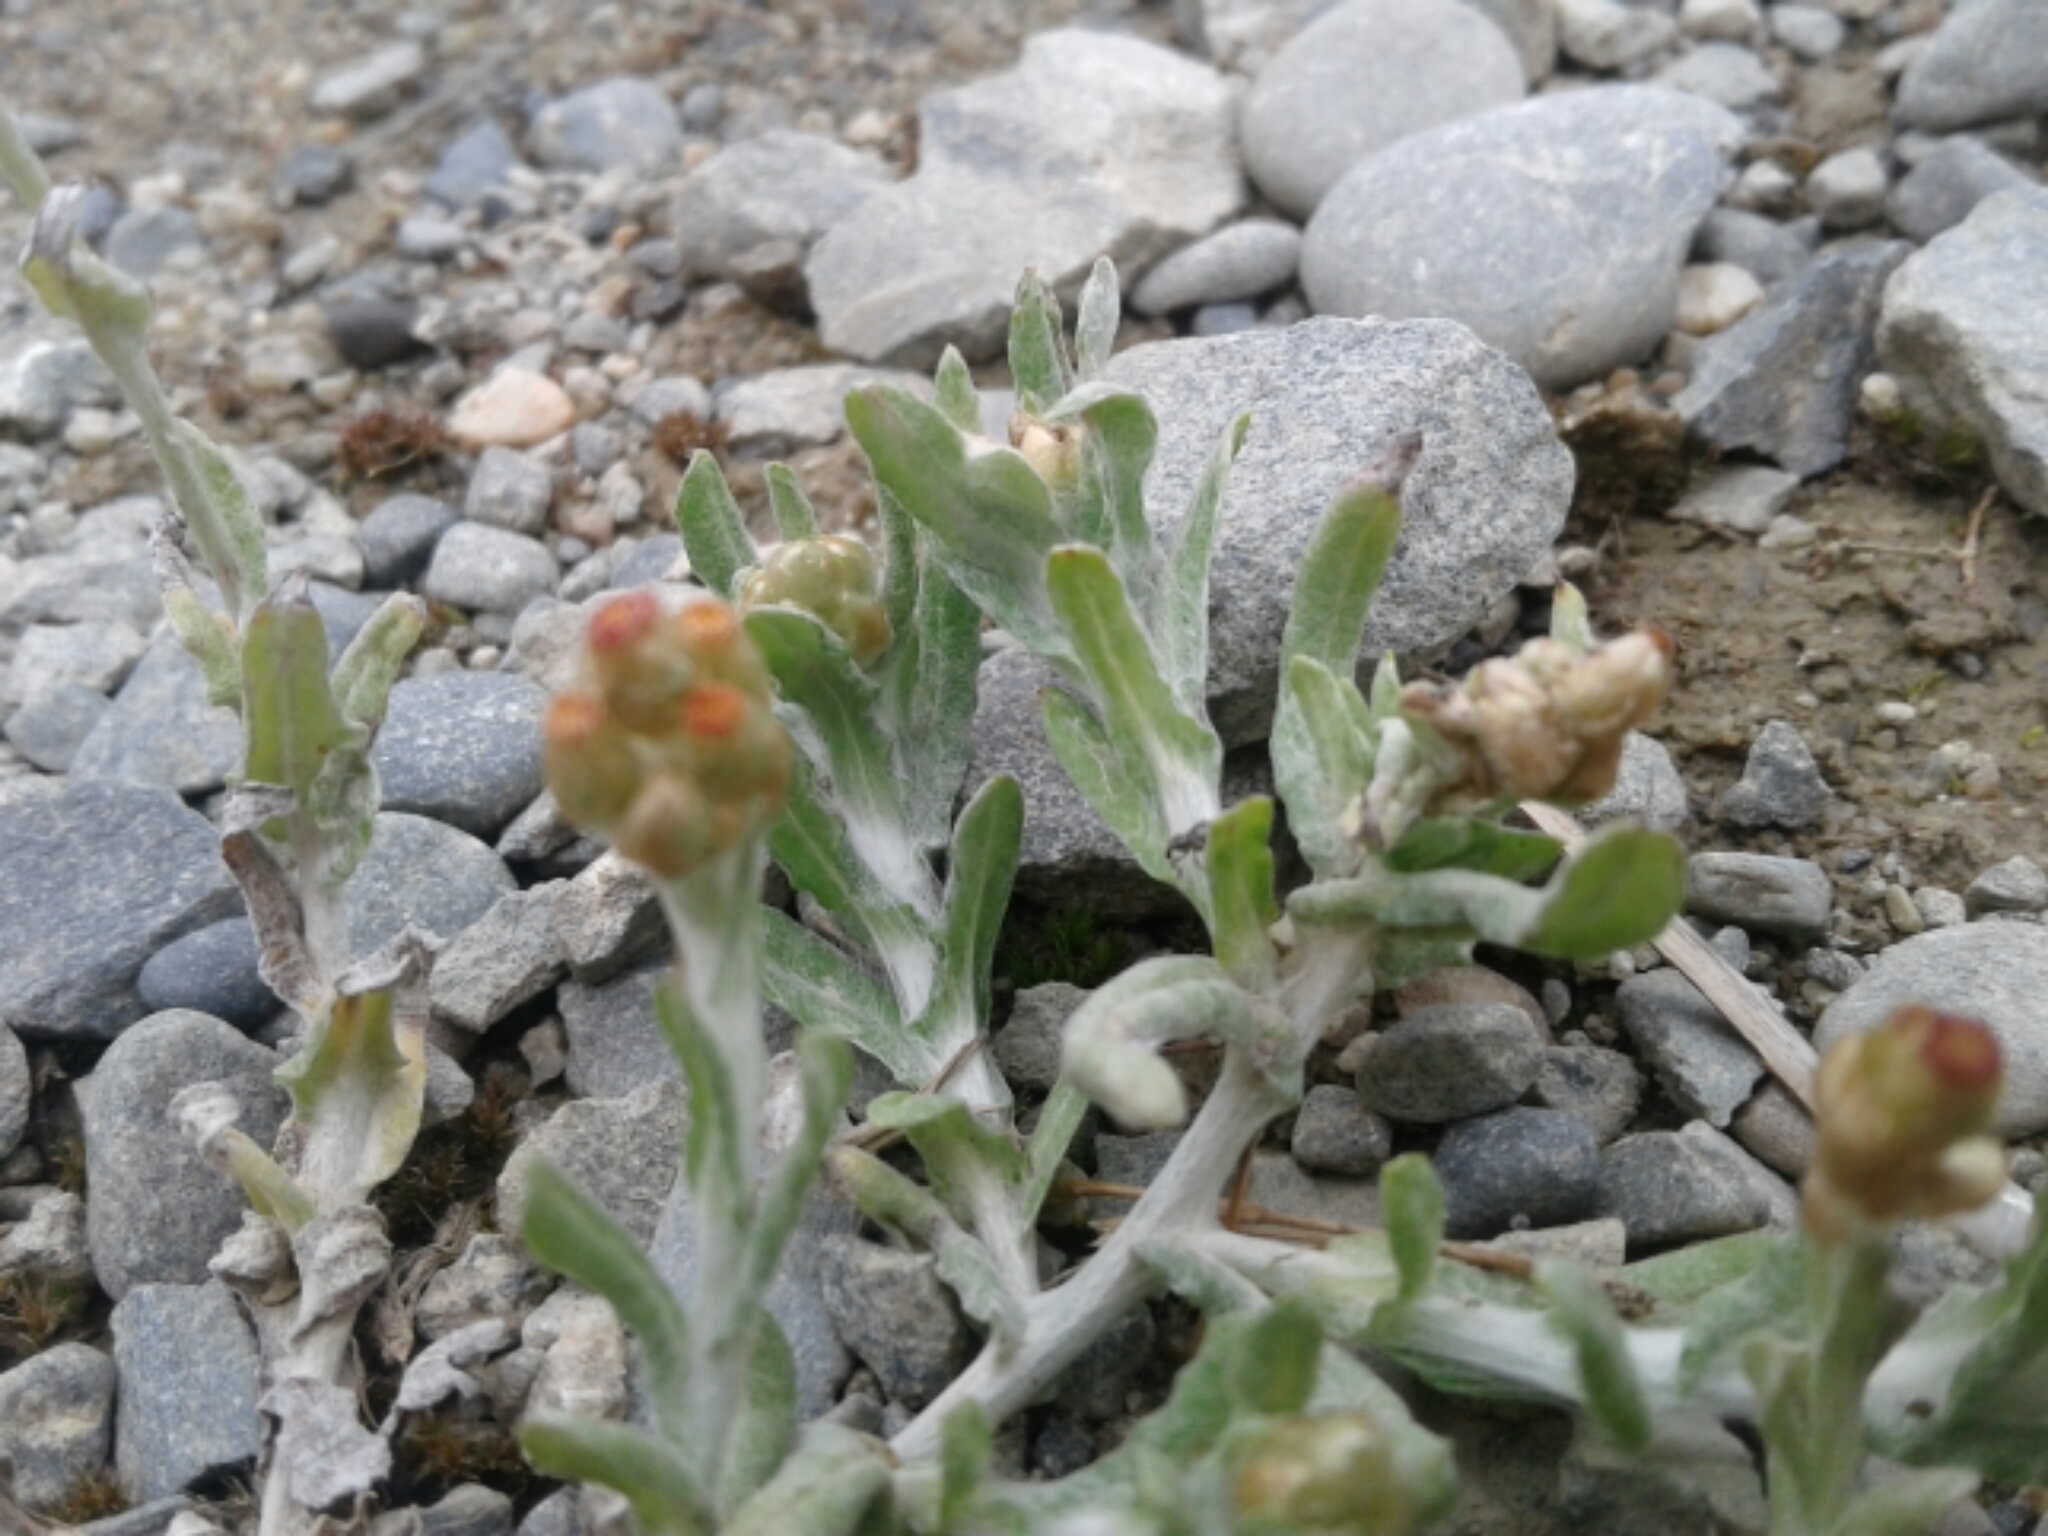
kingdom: Plantae
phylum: Tracheophyta
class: Magnoliopsida
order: Asterales
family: Asteraceae
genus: Helichrysum
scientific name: Helichrysum luteoalbum
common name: Daisy
